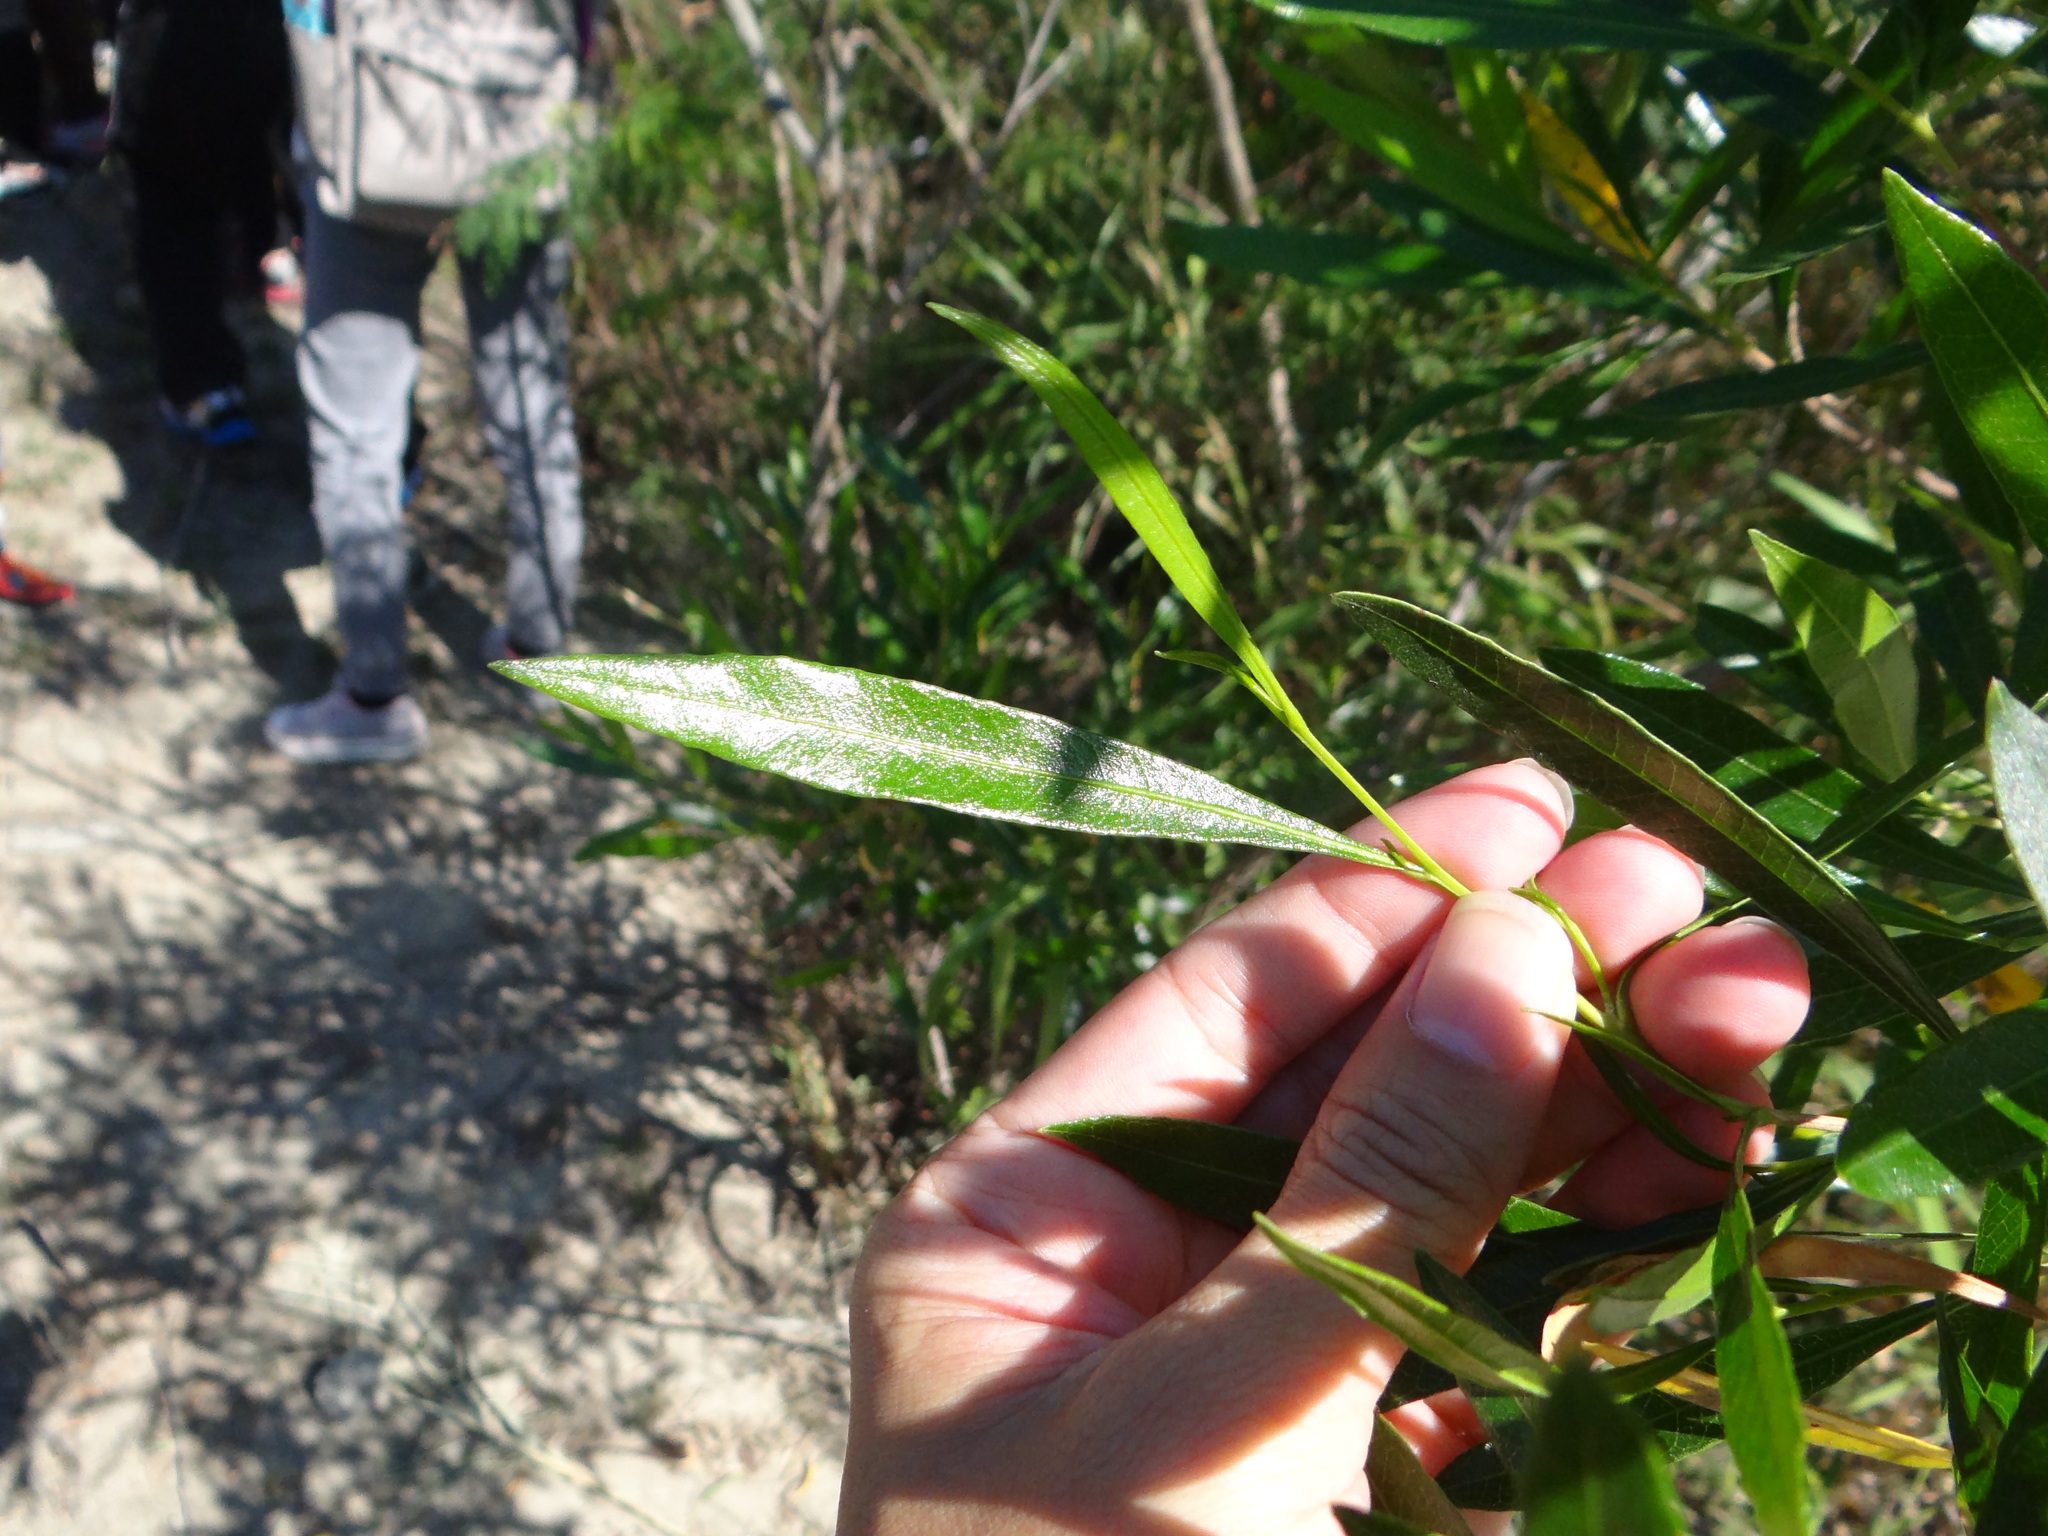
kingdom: Plantae
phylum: Tracheophyta
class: Magnoliopsida
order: Sapindales
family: Sapindaceae
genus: Dodonaea
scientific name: Dodonaea viscosa
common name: Hopbush
